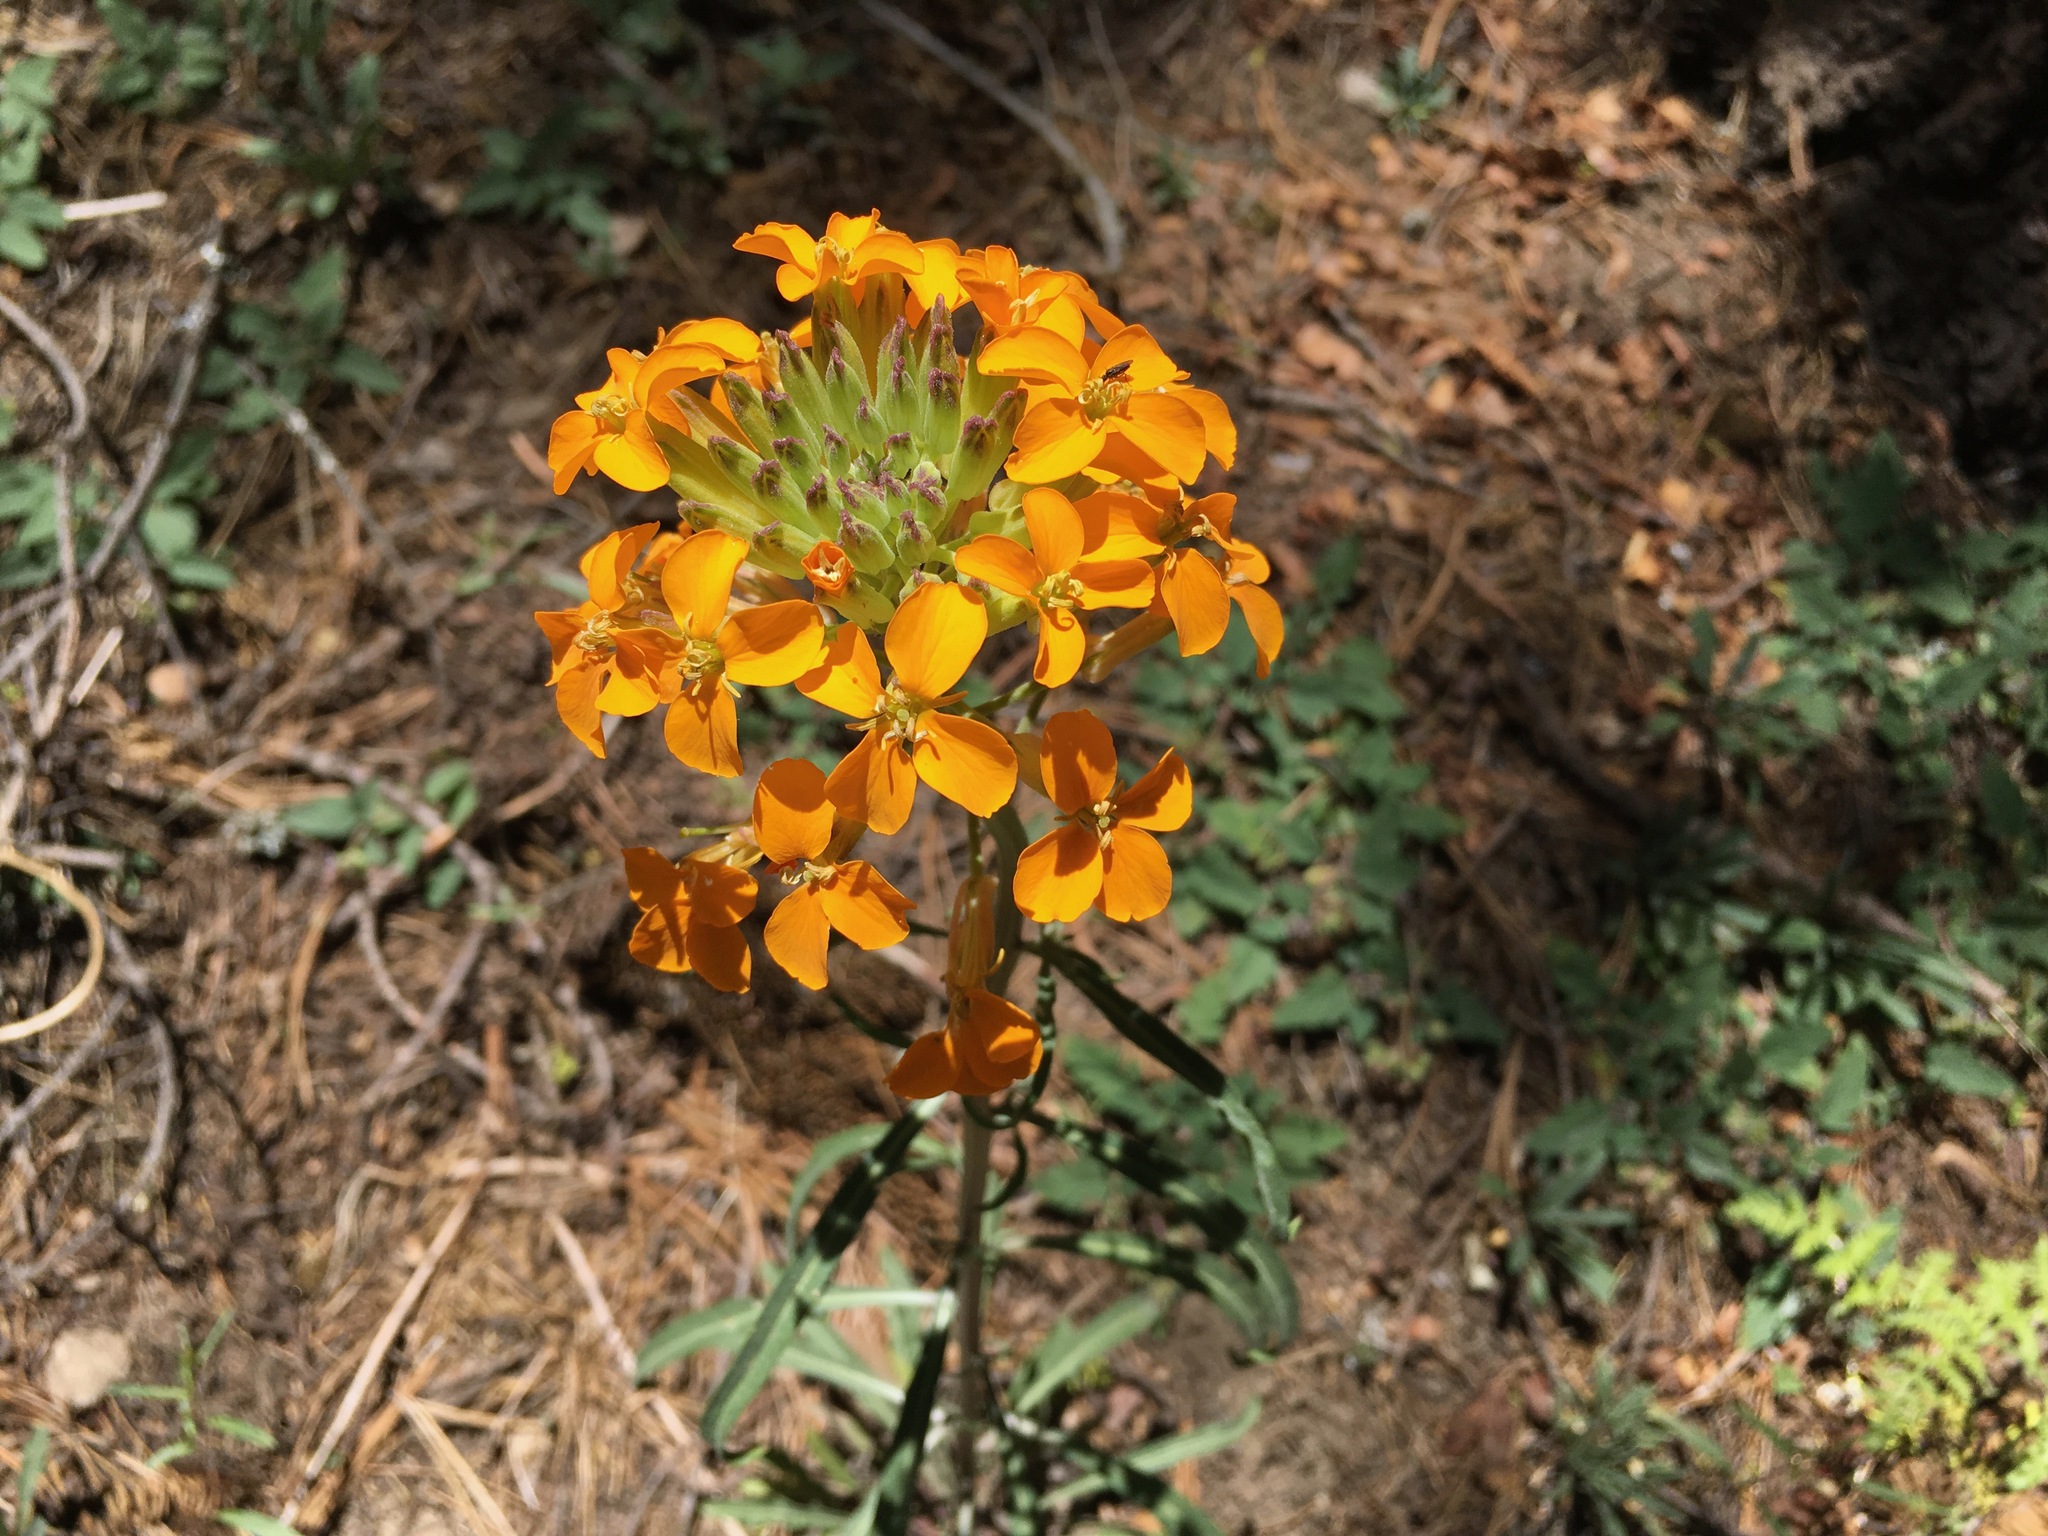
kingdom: Plantae
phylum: Tracheophyta
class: Magnoliopsida
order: Brassicales
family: Brassicaceae
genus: Erysimum
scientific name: Erysimum capitatum
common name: Western wallflower
